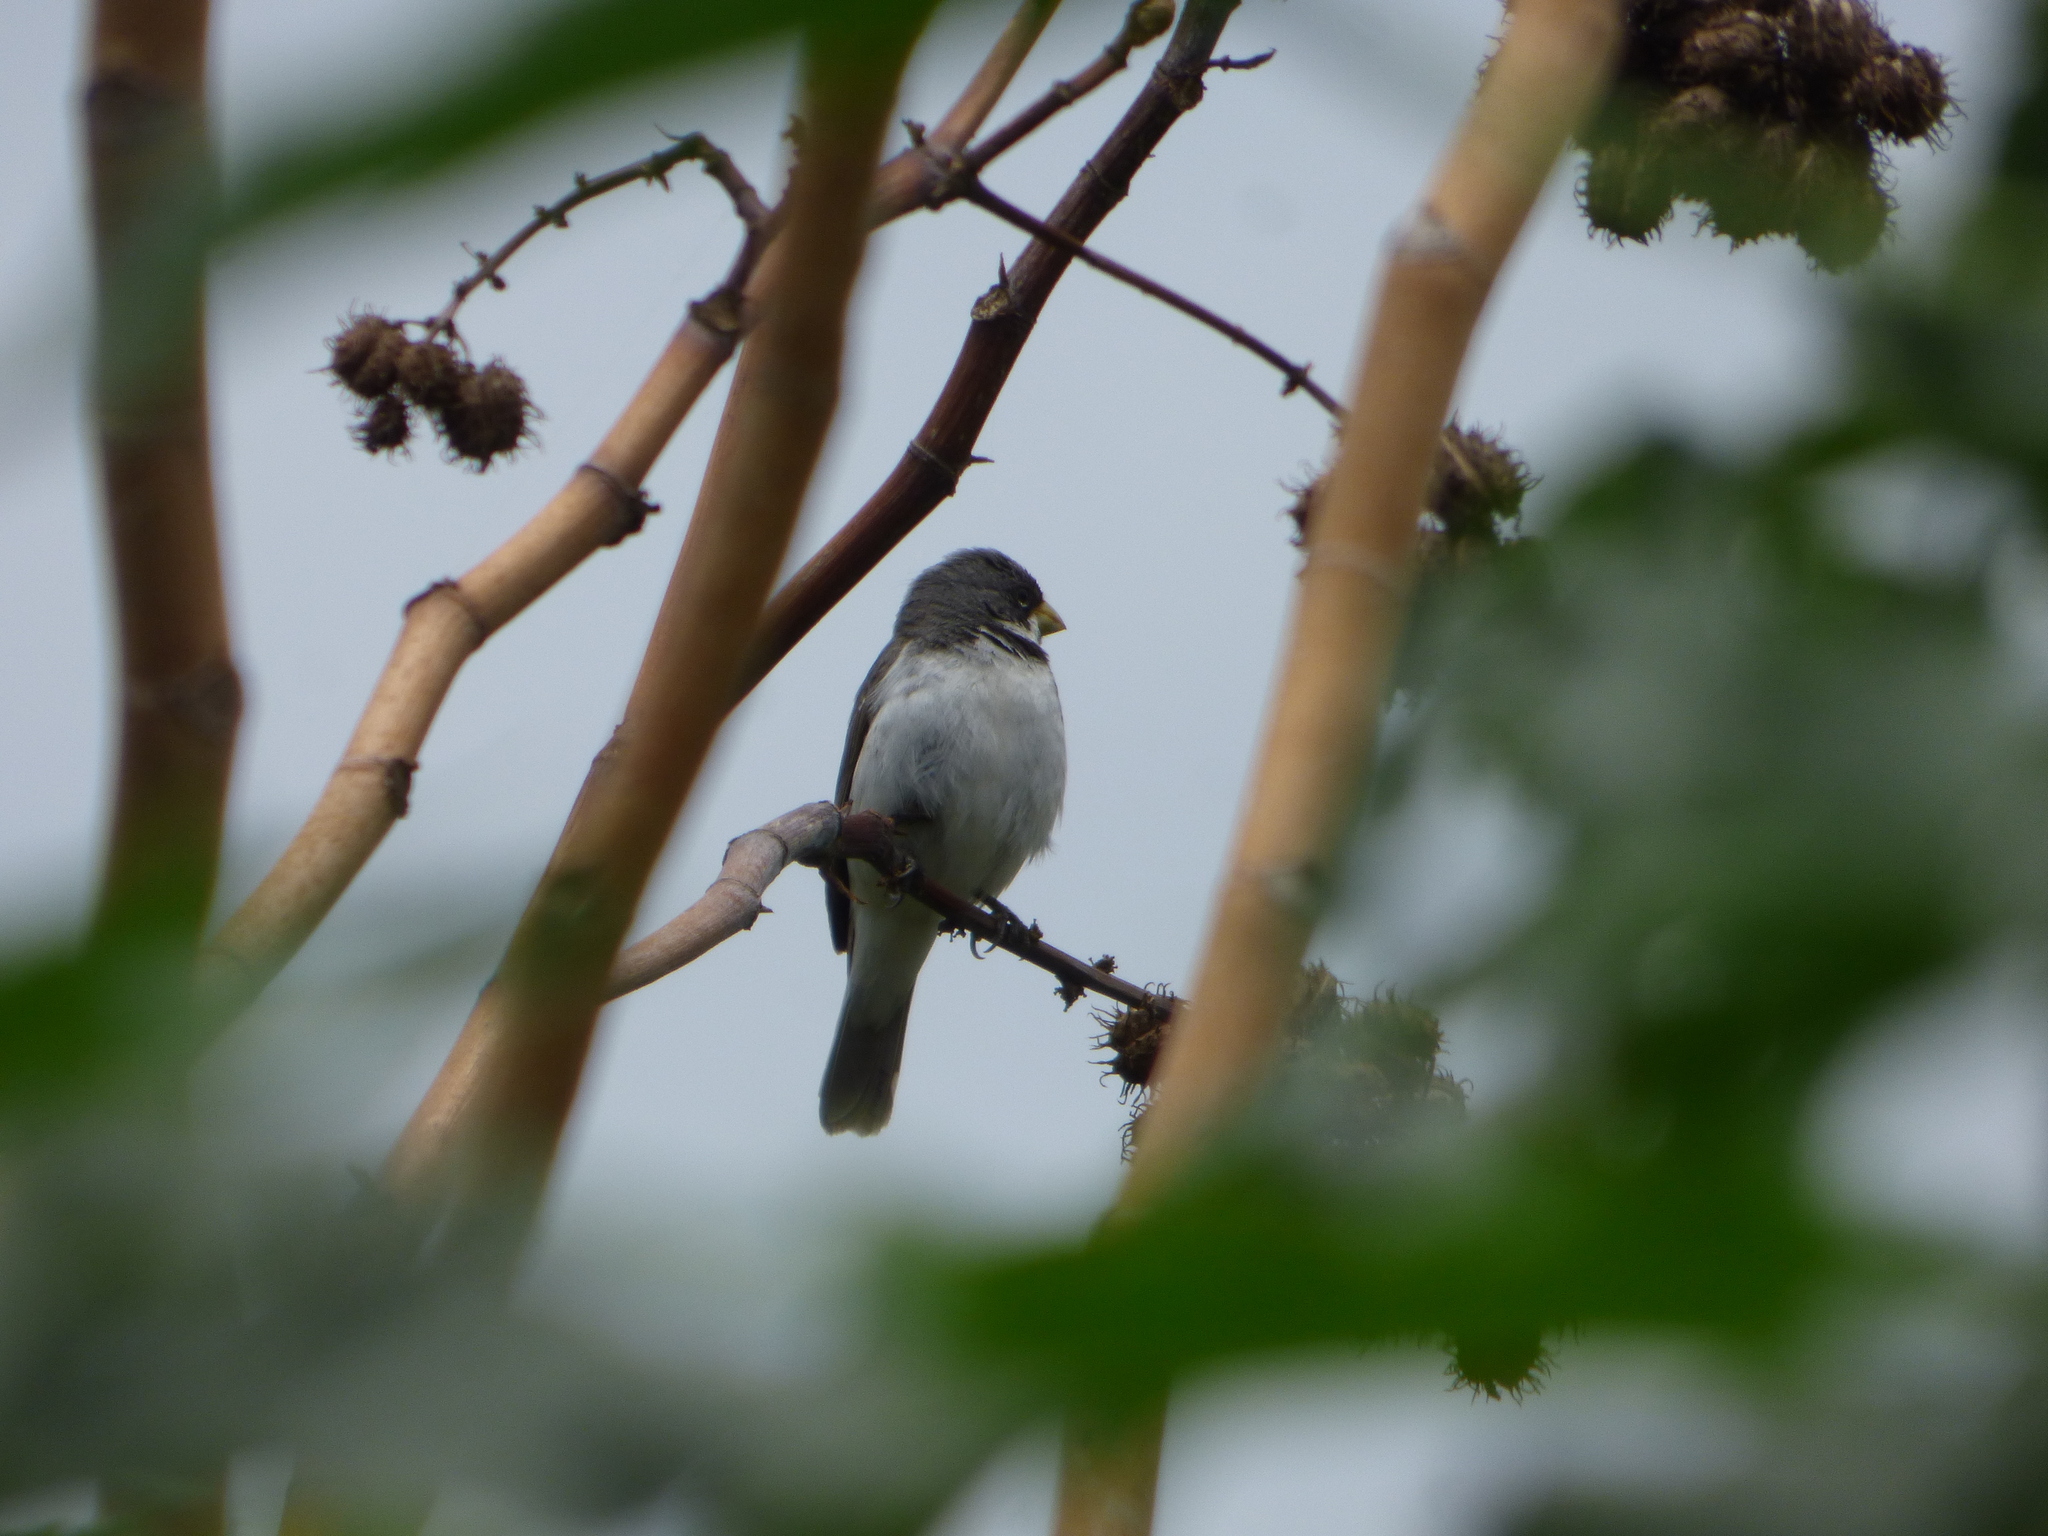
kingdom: Animalia
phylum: Chordata
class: Aves
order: Passeriformes
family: Thraupidae
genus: Sporophila
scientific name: Sporophila caerulescens
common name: Double-collared seedeater
